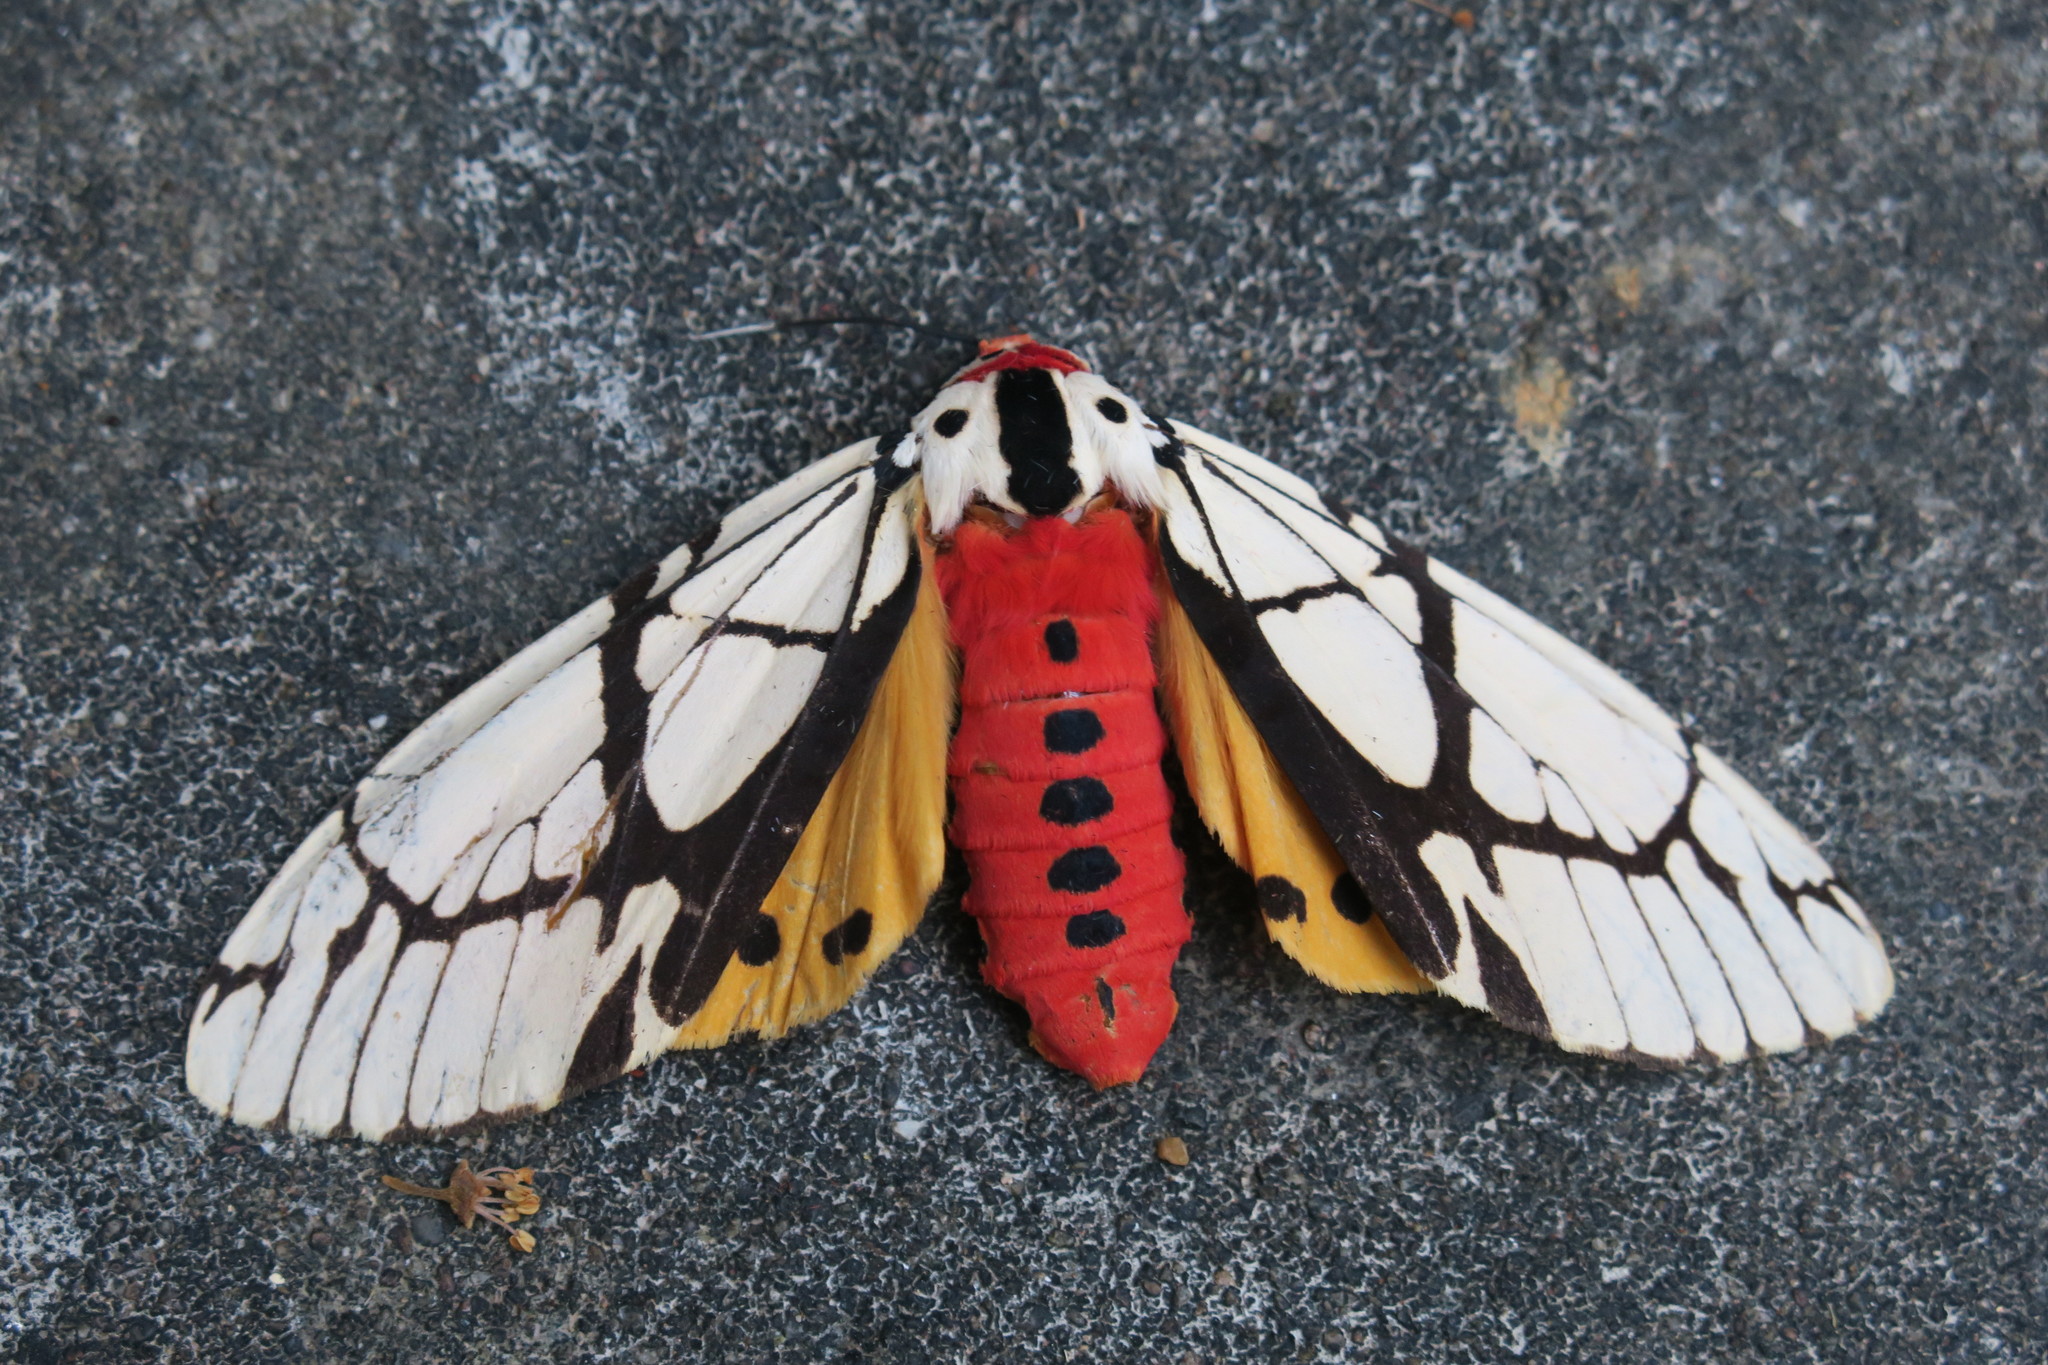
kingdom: Animalia
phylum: Arthropoda
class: Insecta
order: Lepidoptera
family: Erebidae
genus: Areas
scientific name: Areas galactina
